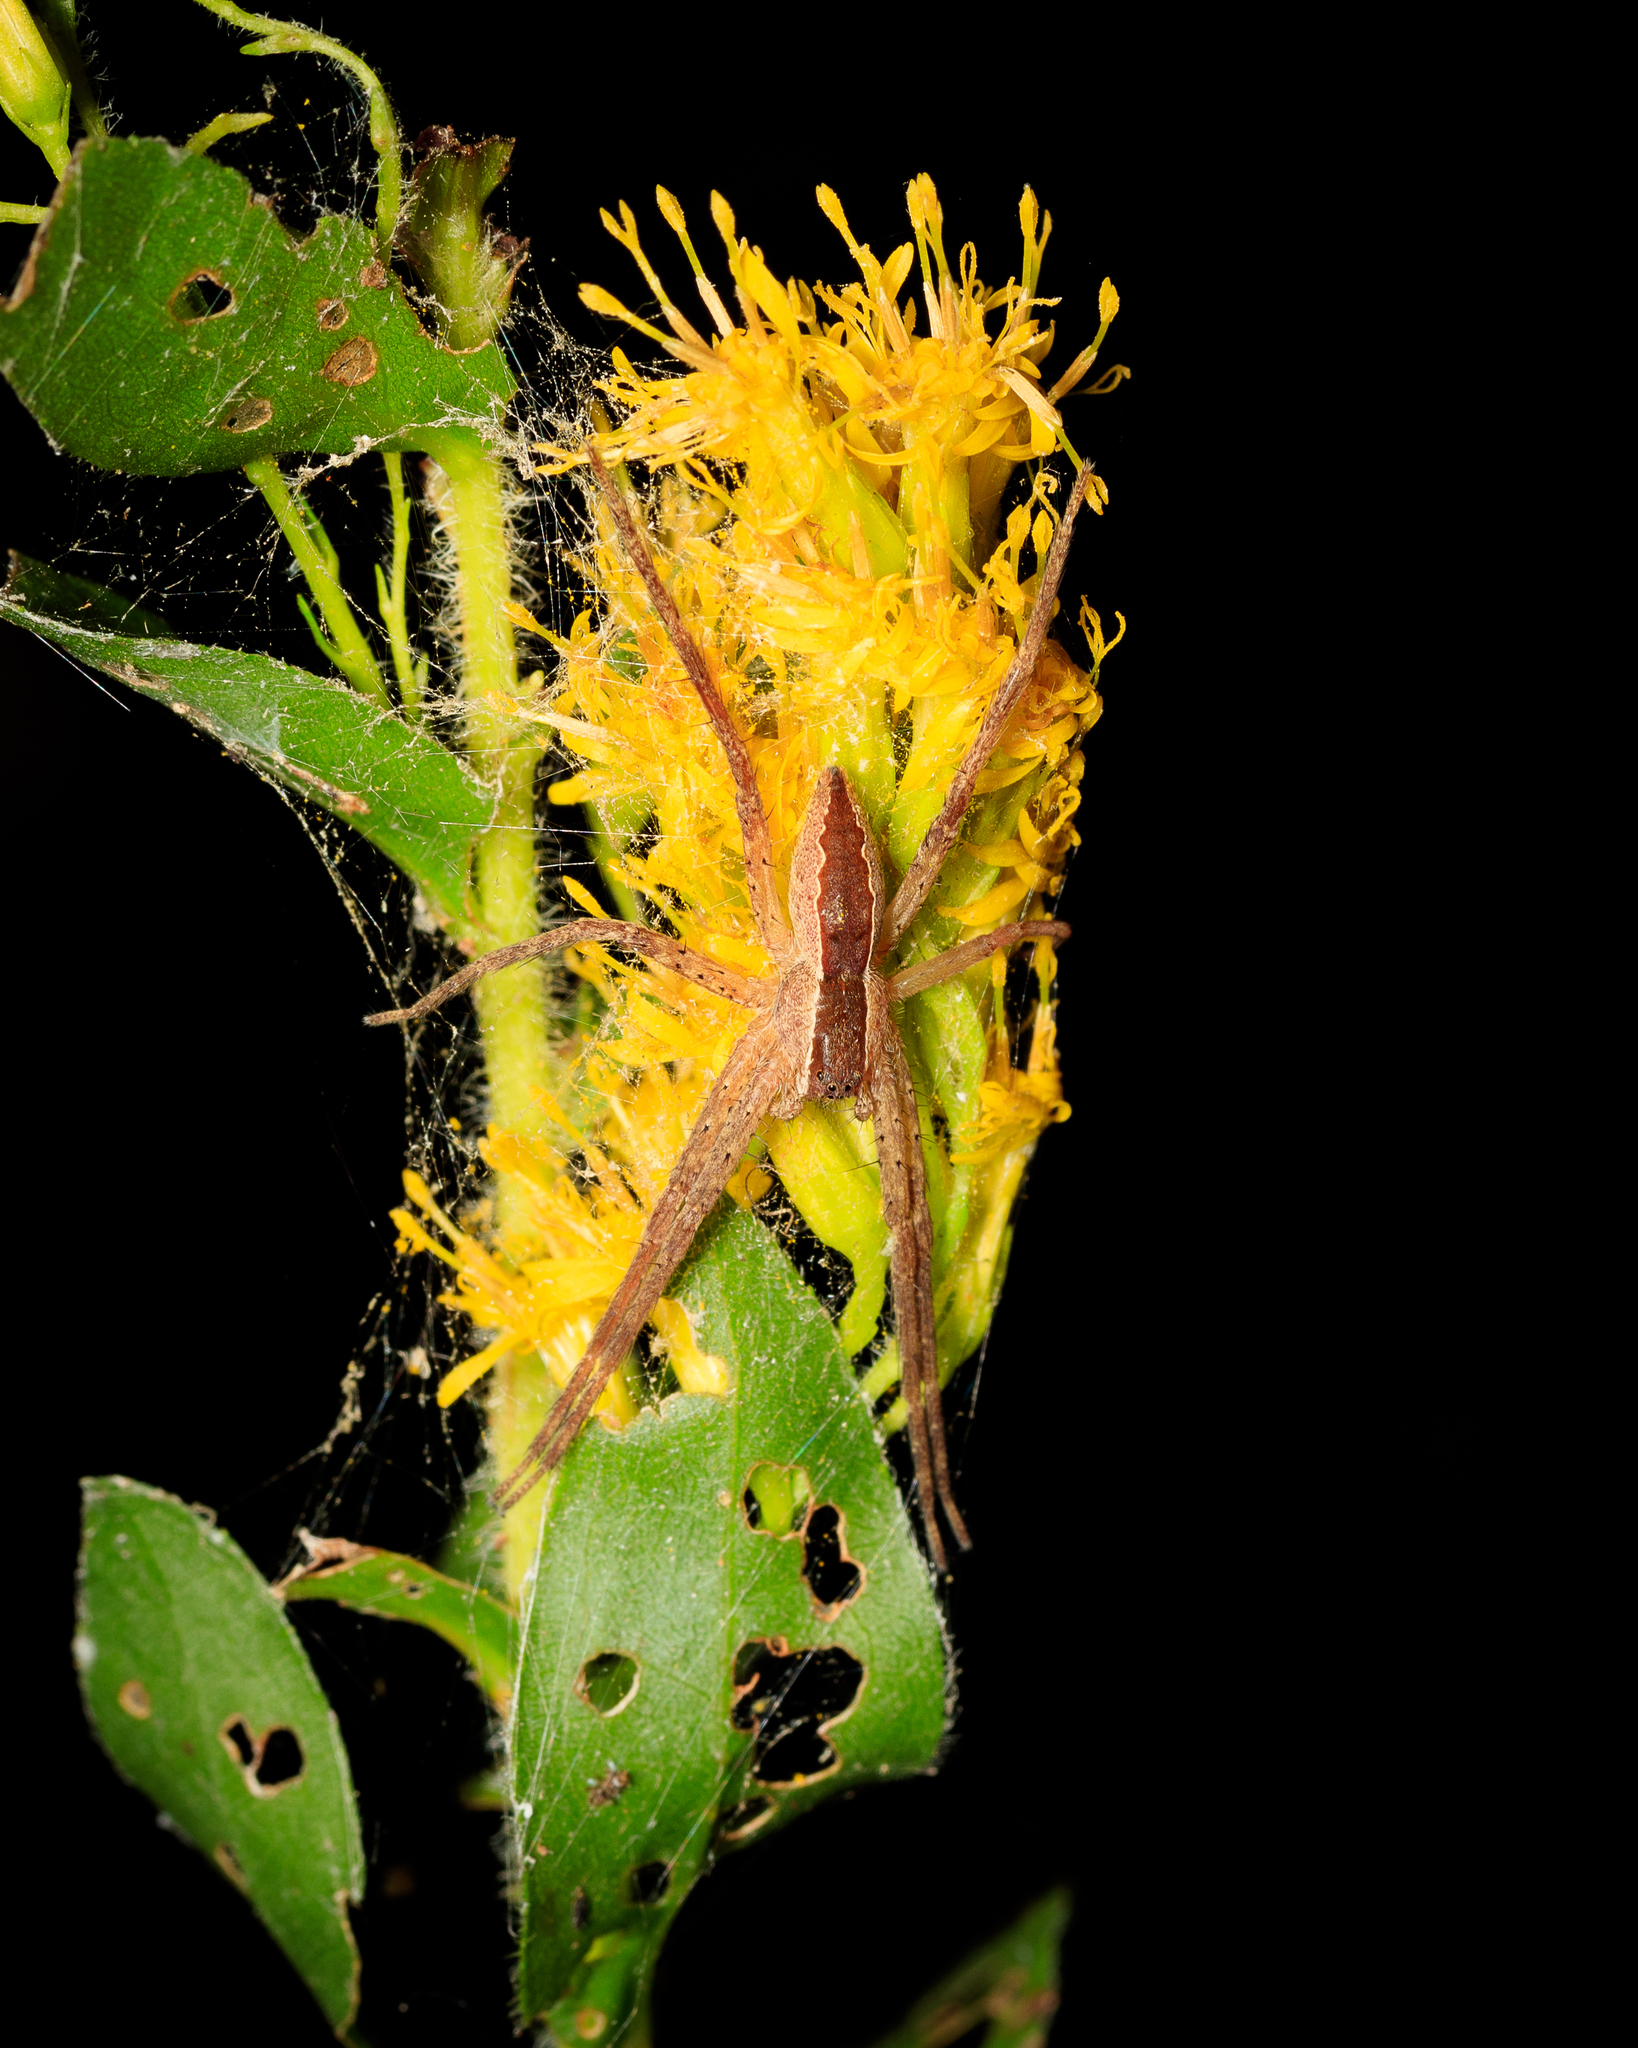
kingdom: Animalia
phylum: Arthropoda
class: Arachnida
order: Araneae
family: Pisauridae
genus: Pisaurina
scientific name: Pisaurina mira
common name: American nursery web spider
